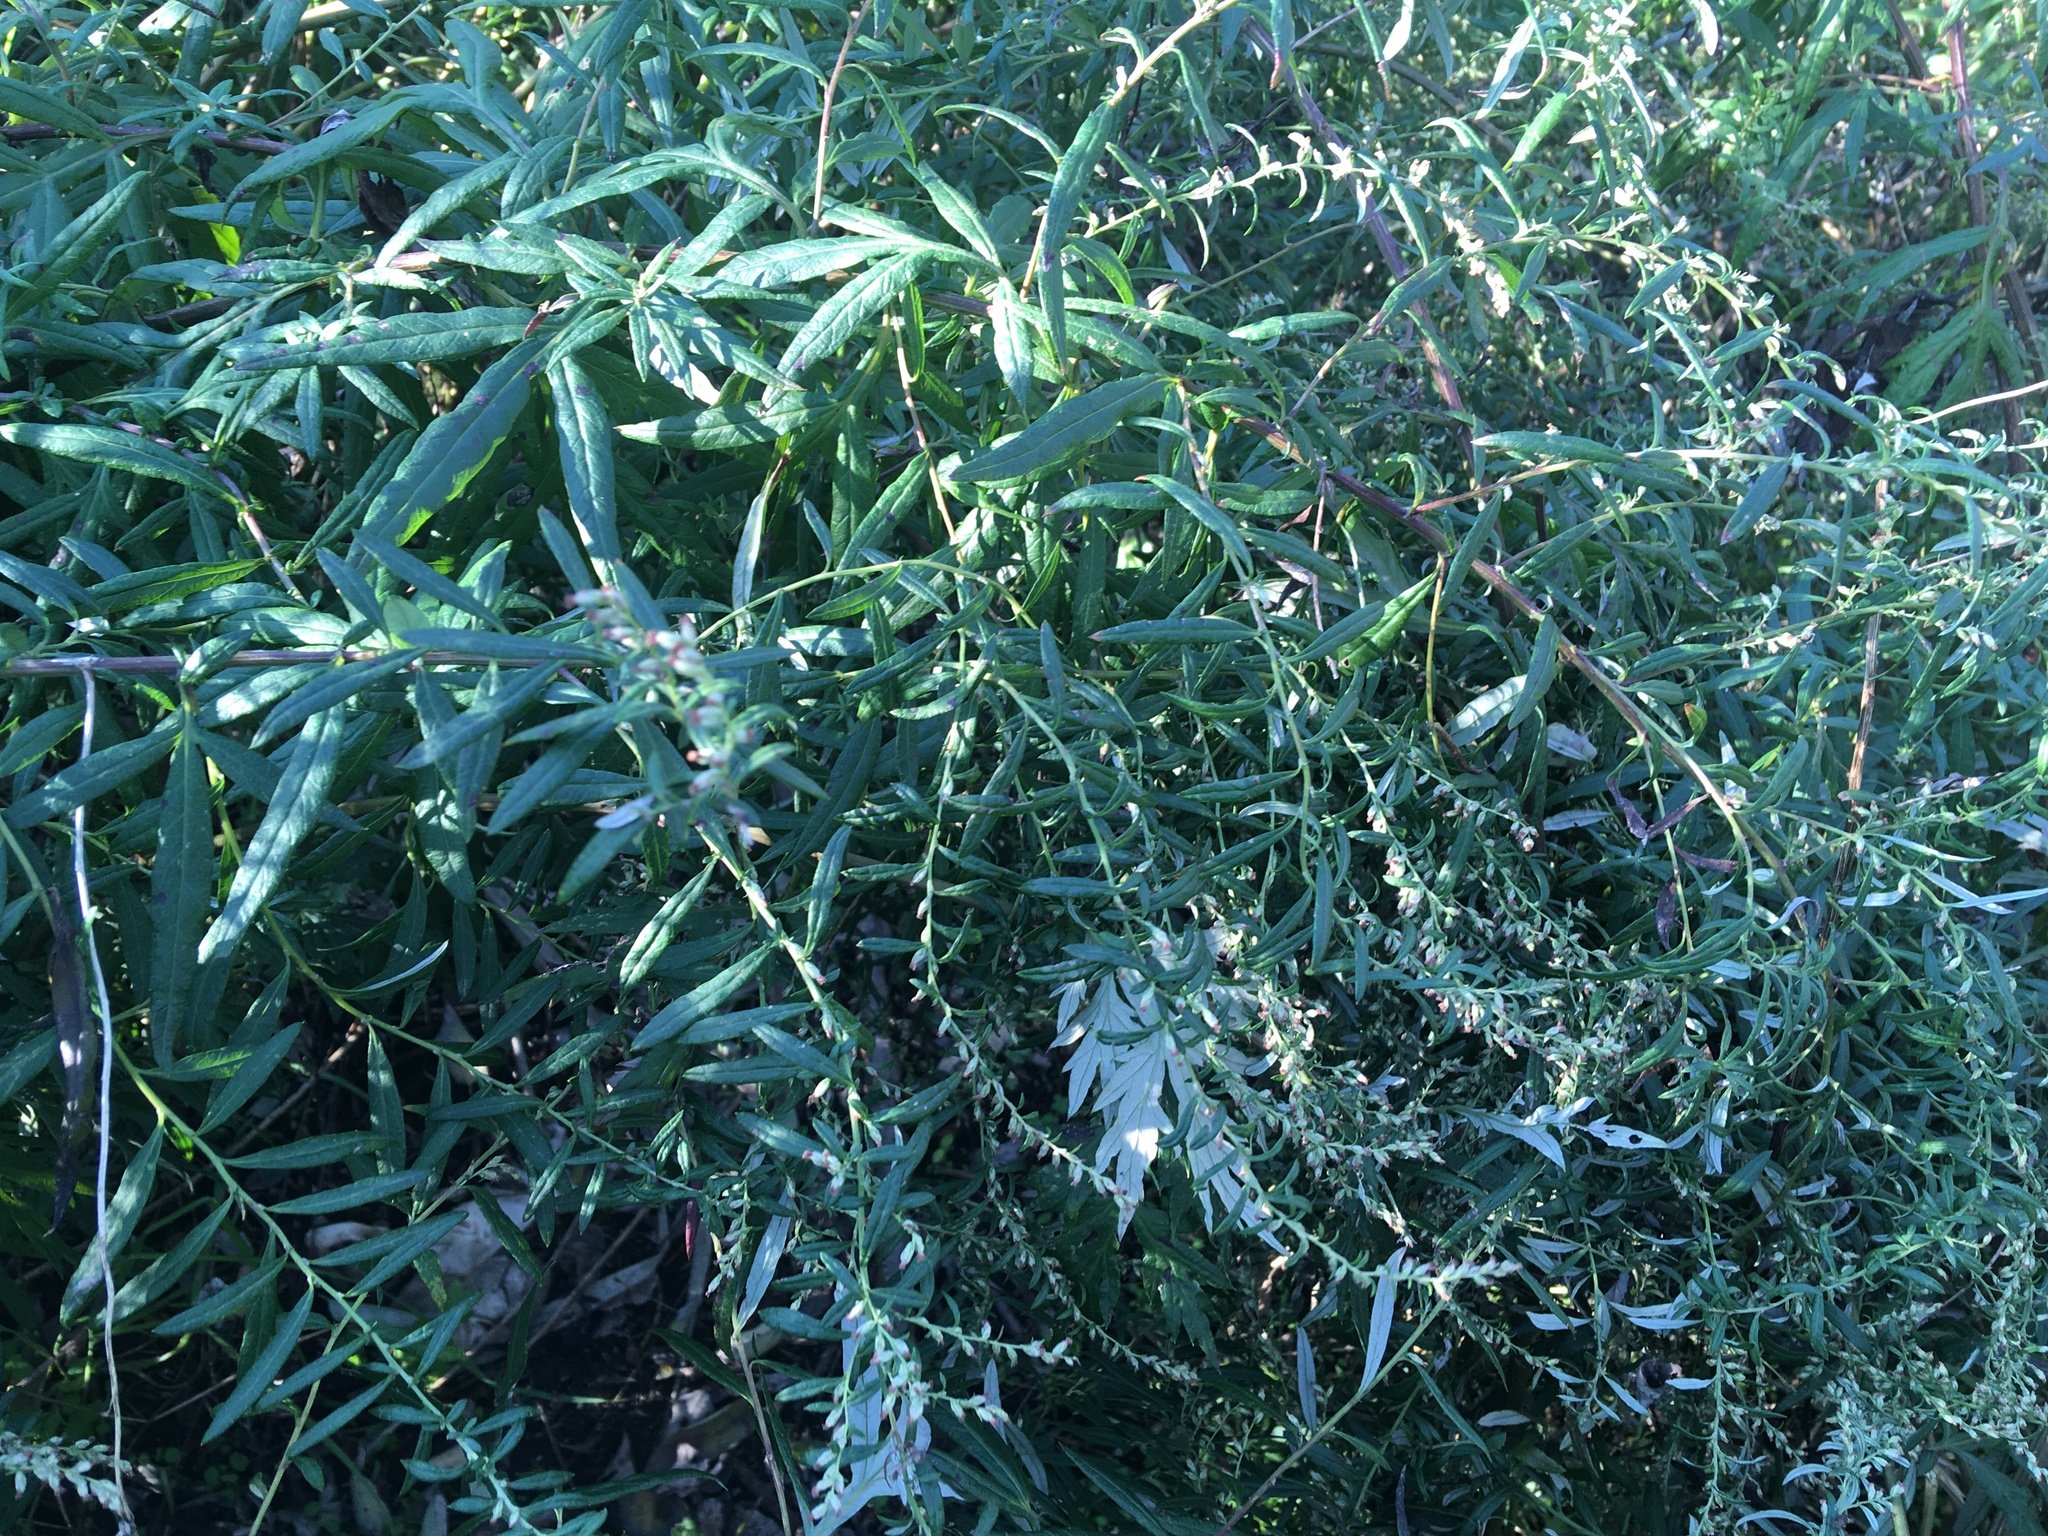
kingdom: Plantae
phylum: Tracheophyta
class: Magnoliopsida
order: Asterales
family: Asteraceae
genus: Artemisia
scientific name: Artemisia vulgaris
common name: Mugwort
